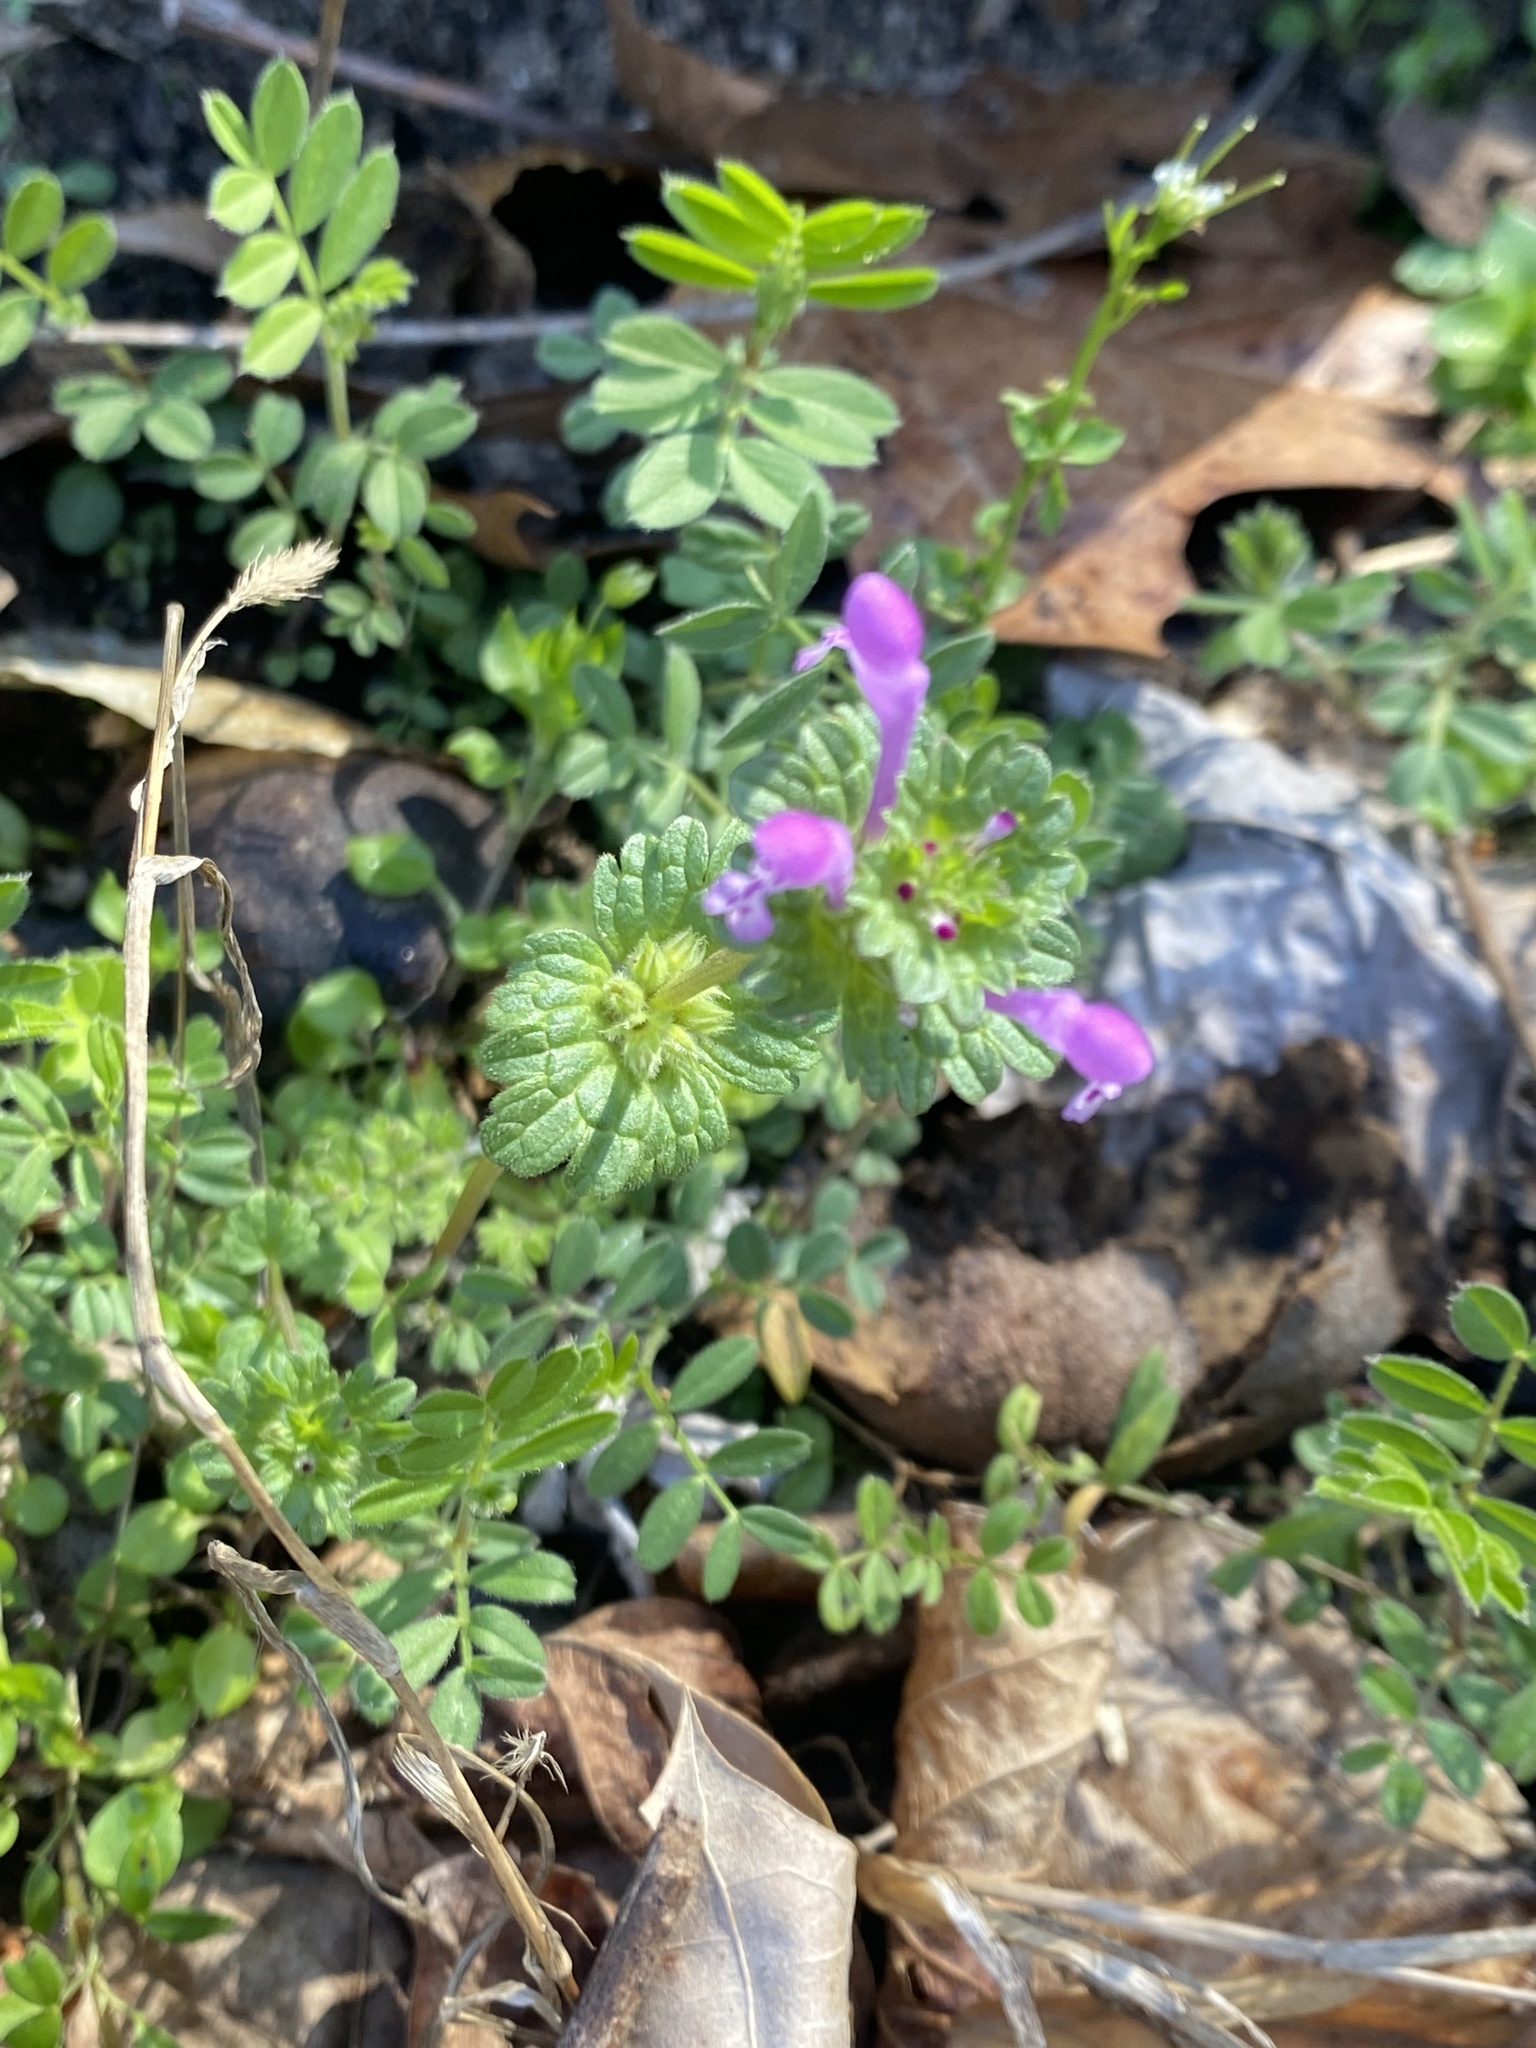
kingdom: Plantae
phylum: Tracheophyta
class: Magnoliopsida
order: Lamiales
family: Lamiaceae
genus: Lamium
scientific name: Lamium amplexicaule
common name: Henbit dead-nettle
